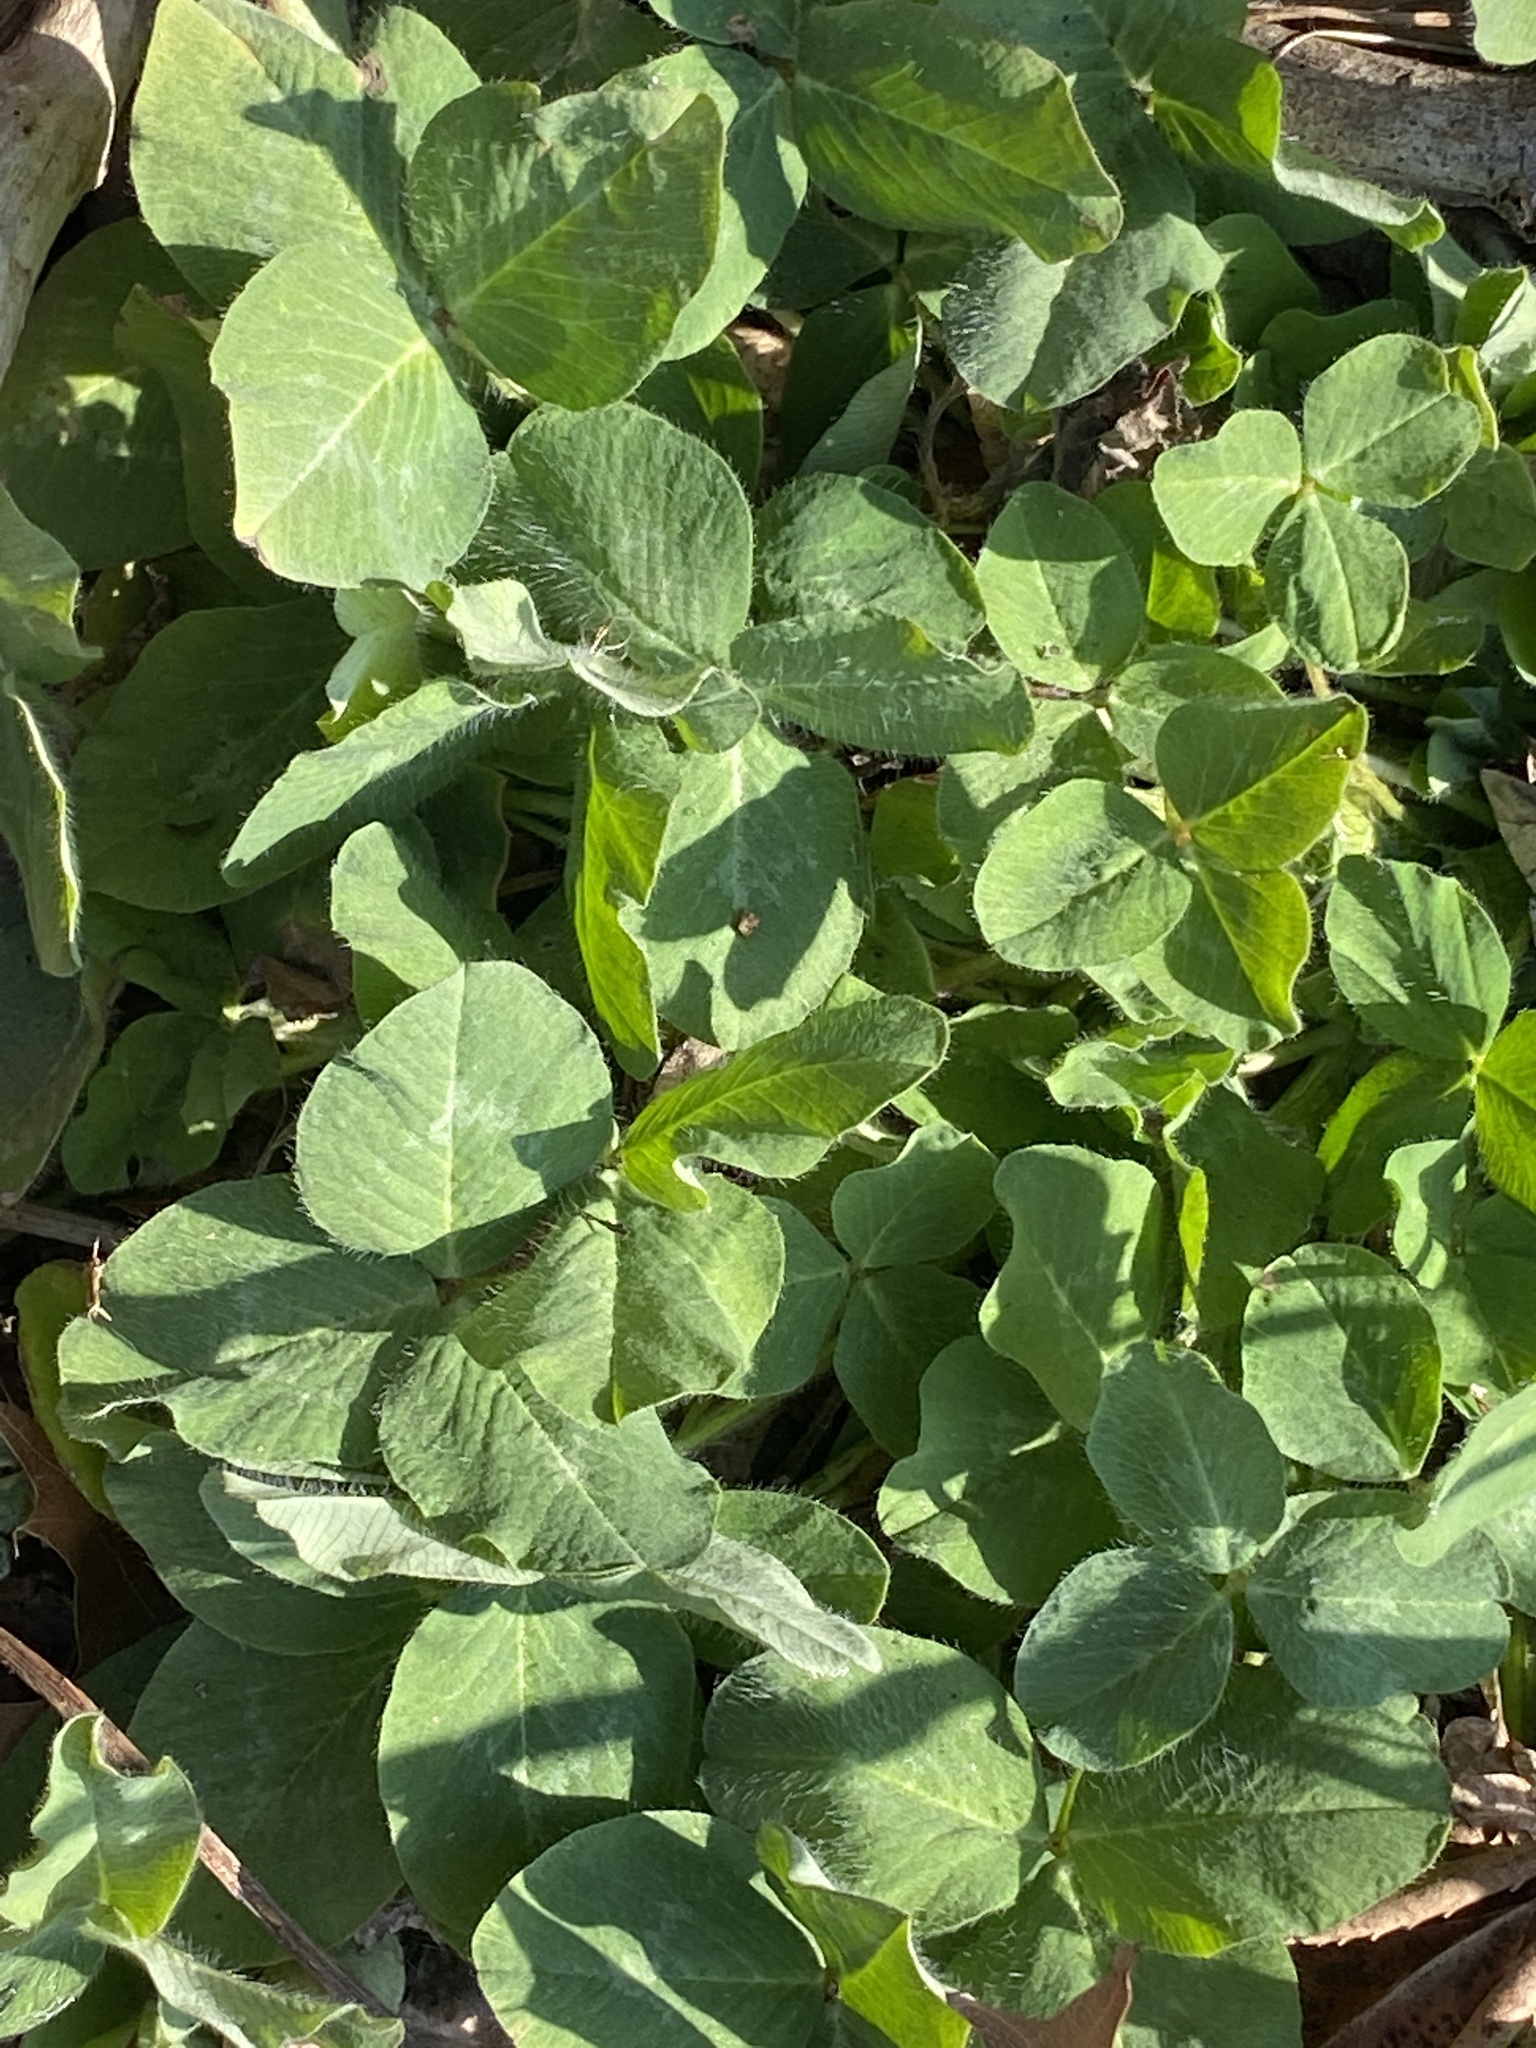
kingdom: Plantae
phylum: Tracheophyta
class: Magnoliopsida
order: Fabales
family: Fabaceae
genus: Trifolium
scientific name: Trifolium pratense
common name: Red clover
